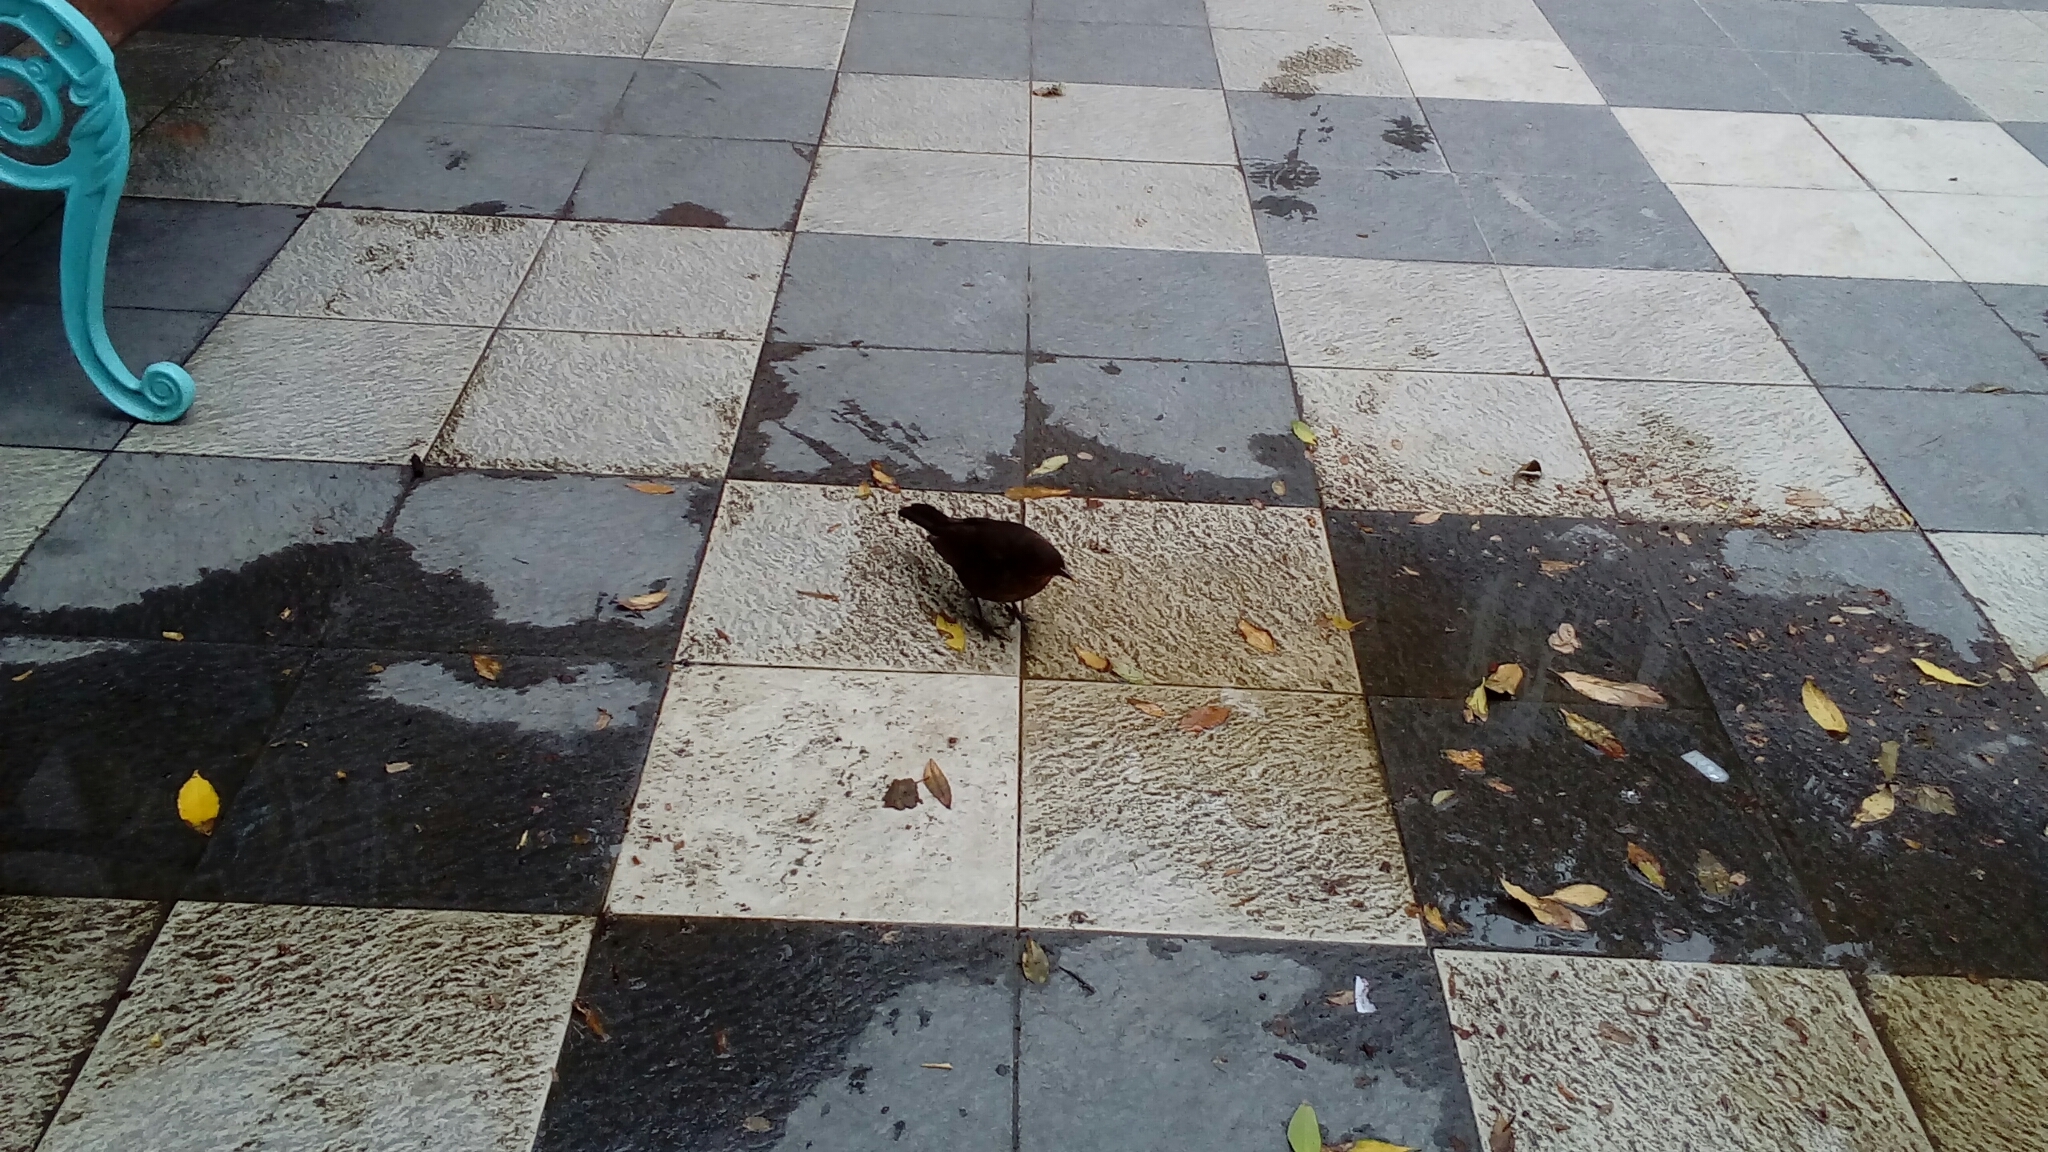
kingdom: Animalia
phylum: Chordata
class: Aves
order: Passeriformes
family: Turdidae
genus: Turdus
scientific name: Turdus merula
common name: Common blackbird
